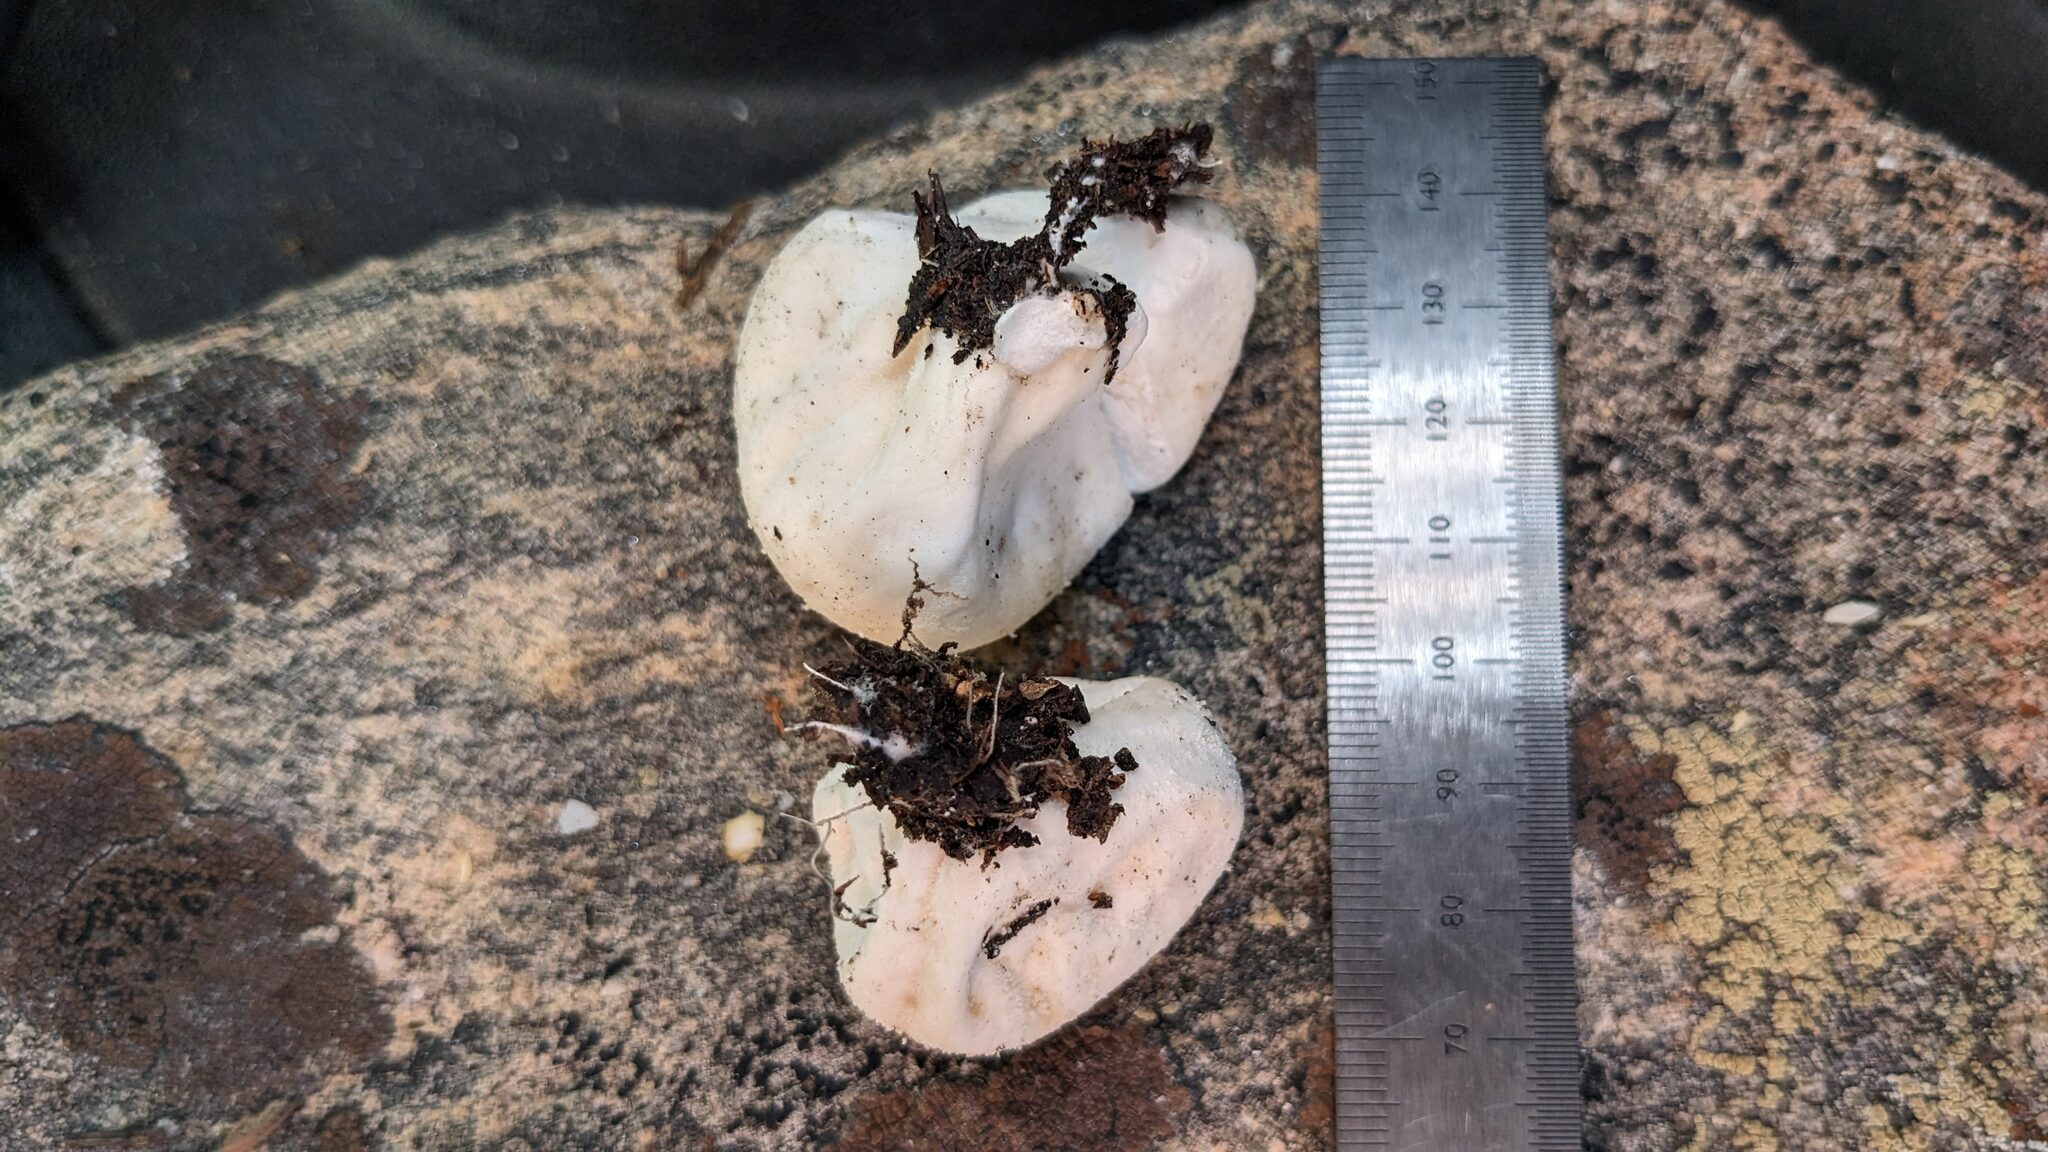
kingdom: Fungi
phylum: Basidiomycota
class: Agaricomycetes
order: Agaricales
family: Lycoperdaceae
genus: Lycoperdon
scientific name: Lycoperdon perlatum
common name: Common puffball
